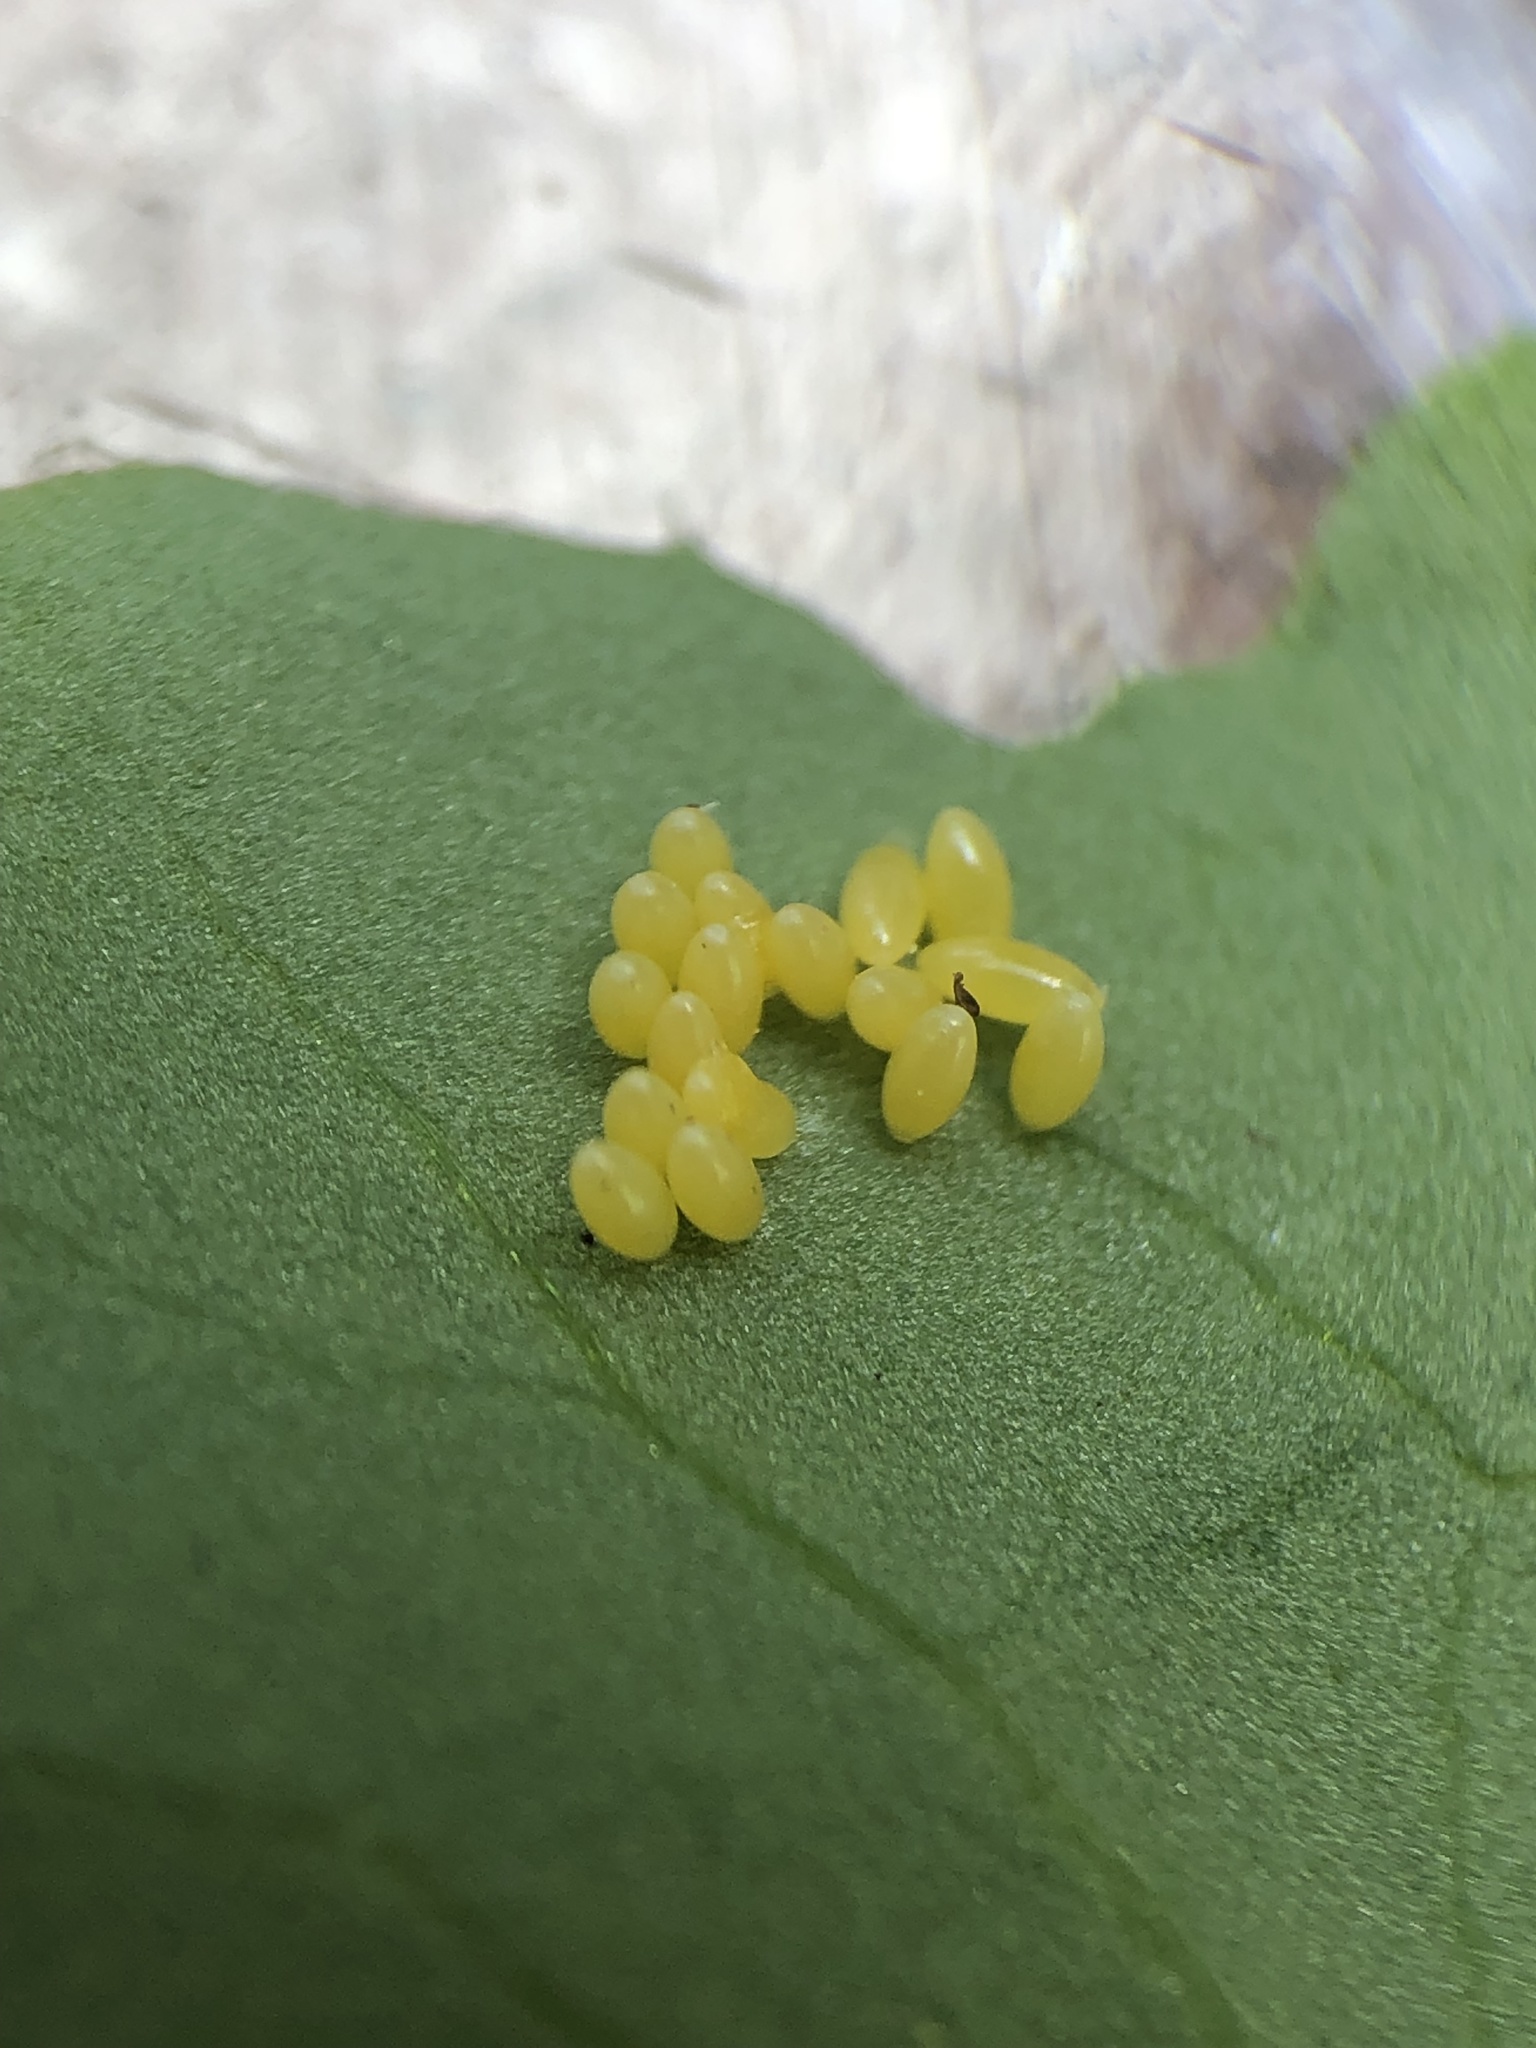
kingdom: Animalia
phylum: Arthropoda
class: Insecta
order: Coleoptera
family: Chrysomelidae
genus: Leptinotarsa
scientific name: Leptinotarsa decemlineata
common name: Colorado potato beetle
